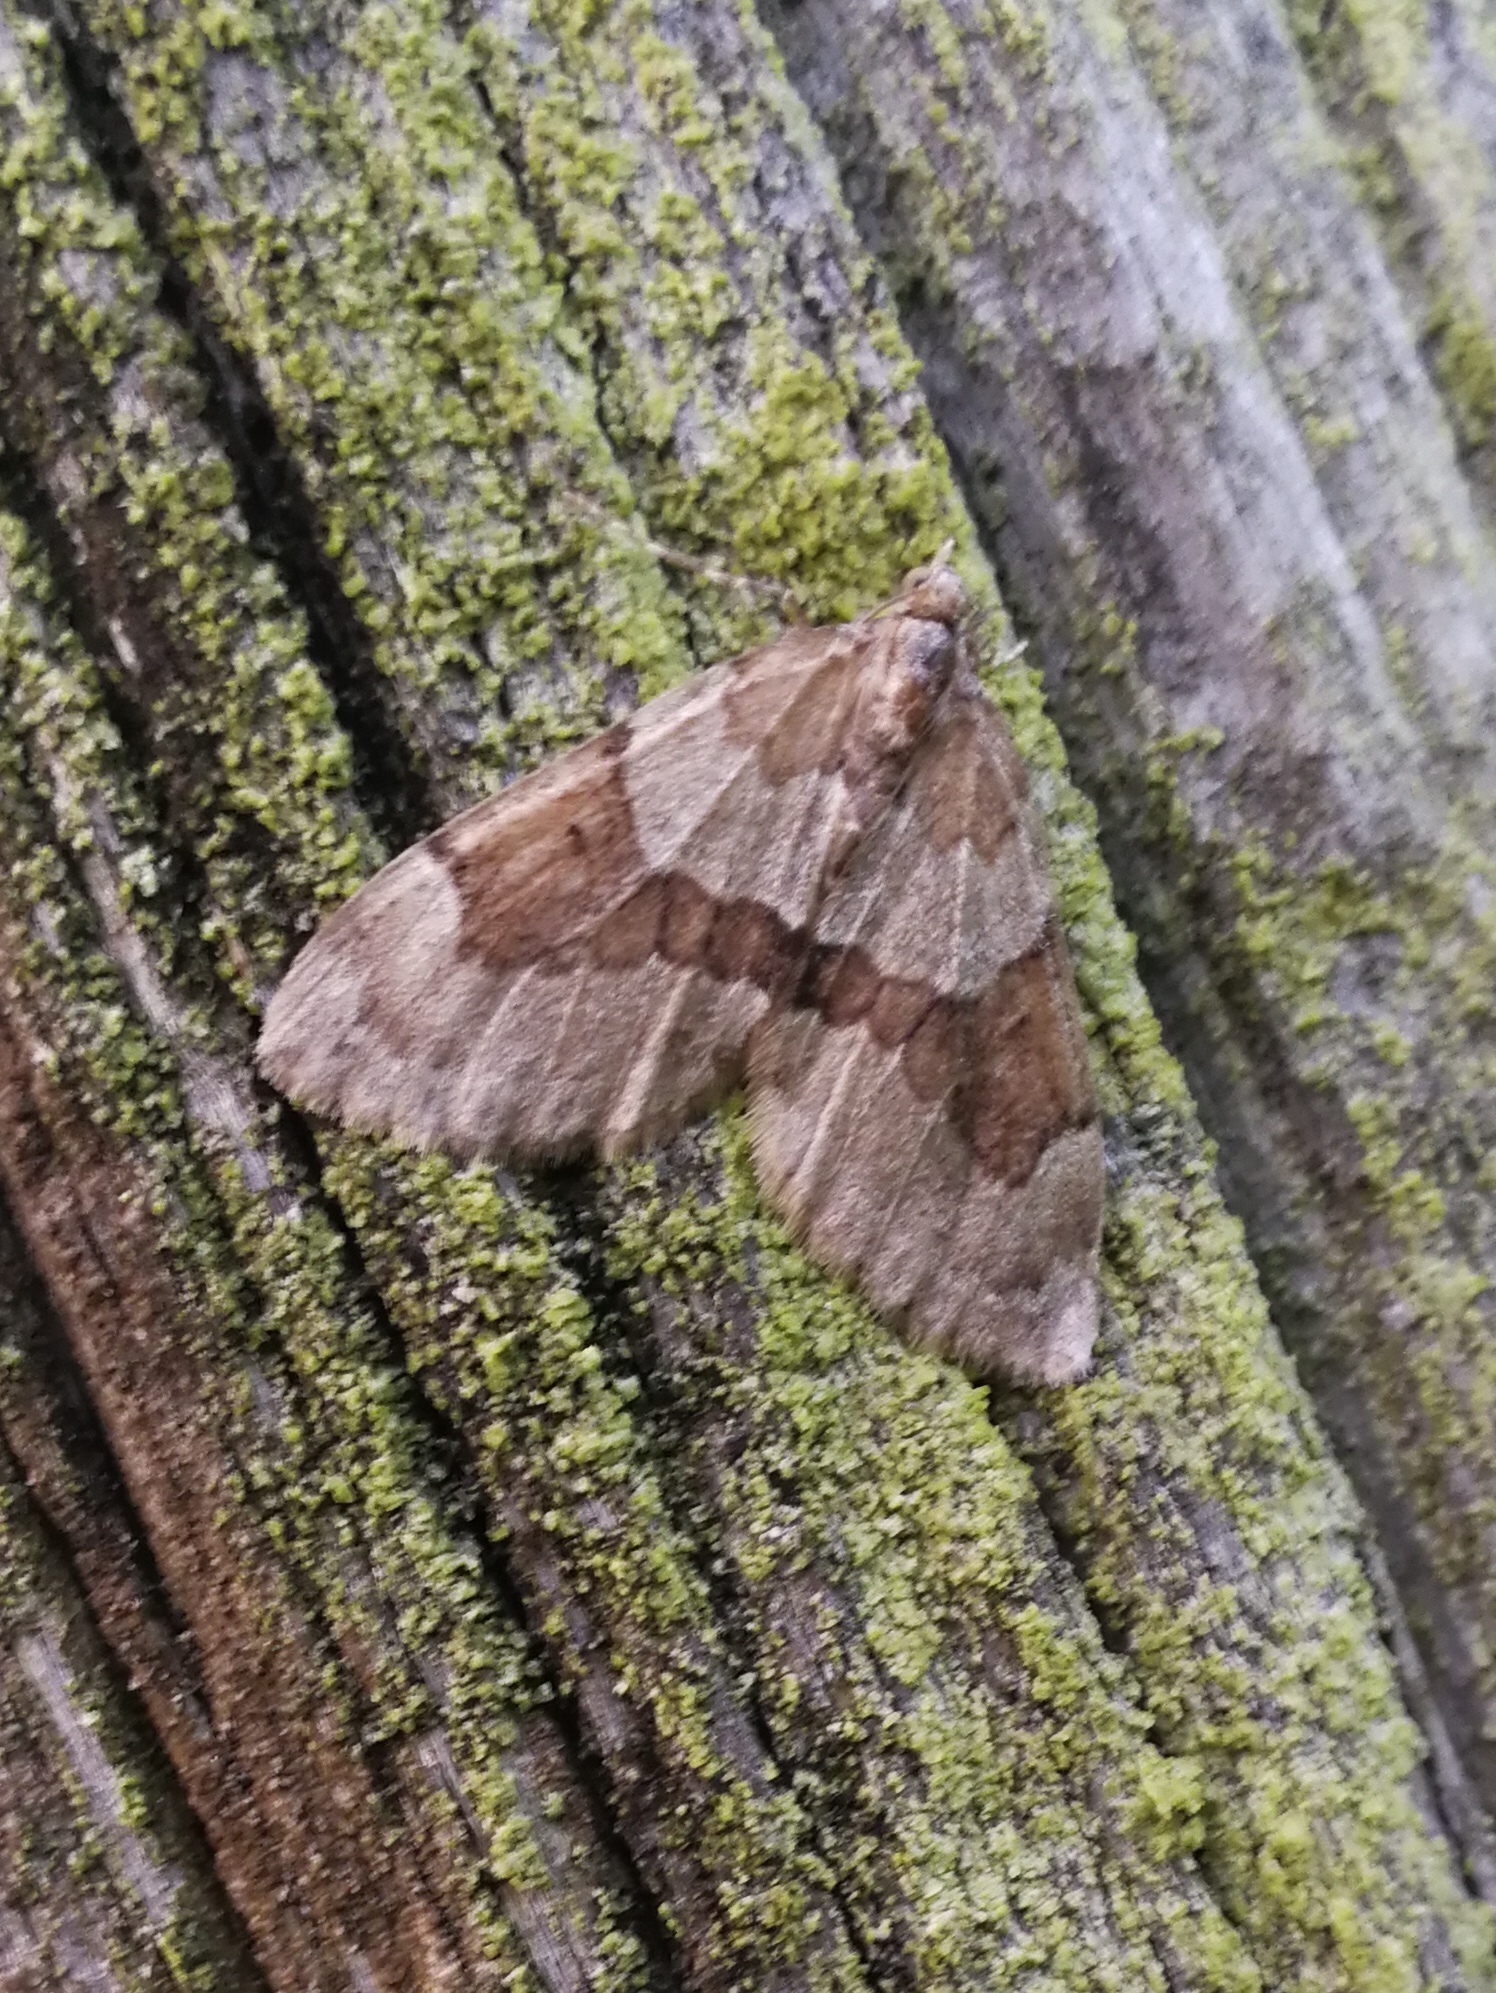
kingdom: Animalia
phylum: Arthropoda
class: Insecta
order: Lepidoptera
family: Geometridae
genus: Thera
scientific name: Thera obeliscata
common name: Grey pine carpet
